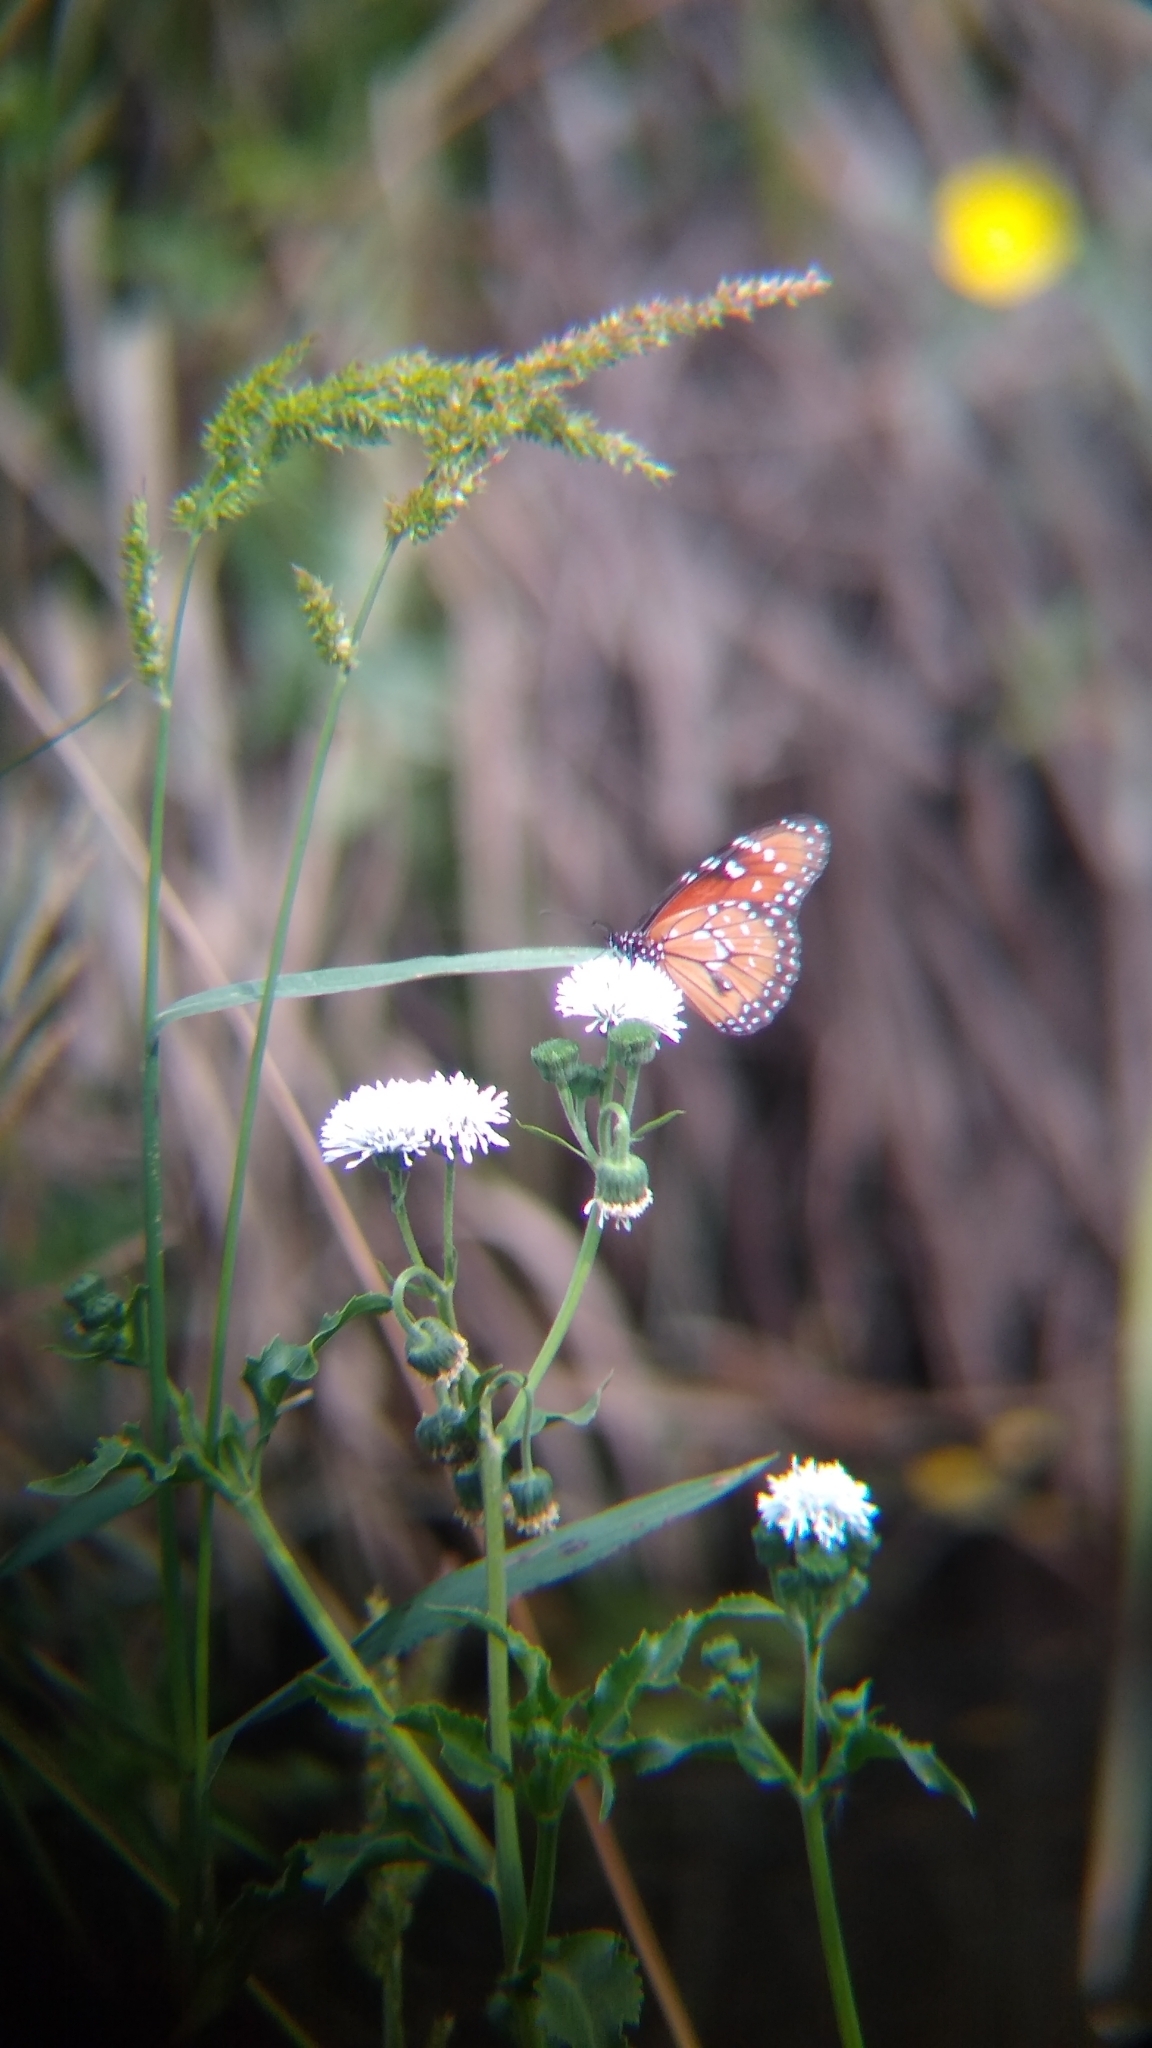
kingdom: Animalia
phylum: Arthropoda
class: Insecta
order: Lepidoptera
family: Nymphalidae
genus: Danaus
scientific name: Danaus eresimus
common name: Soldier
